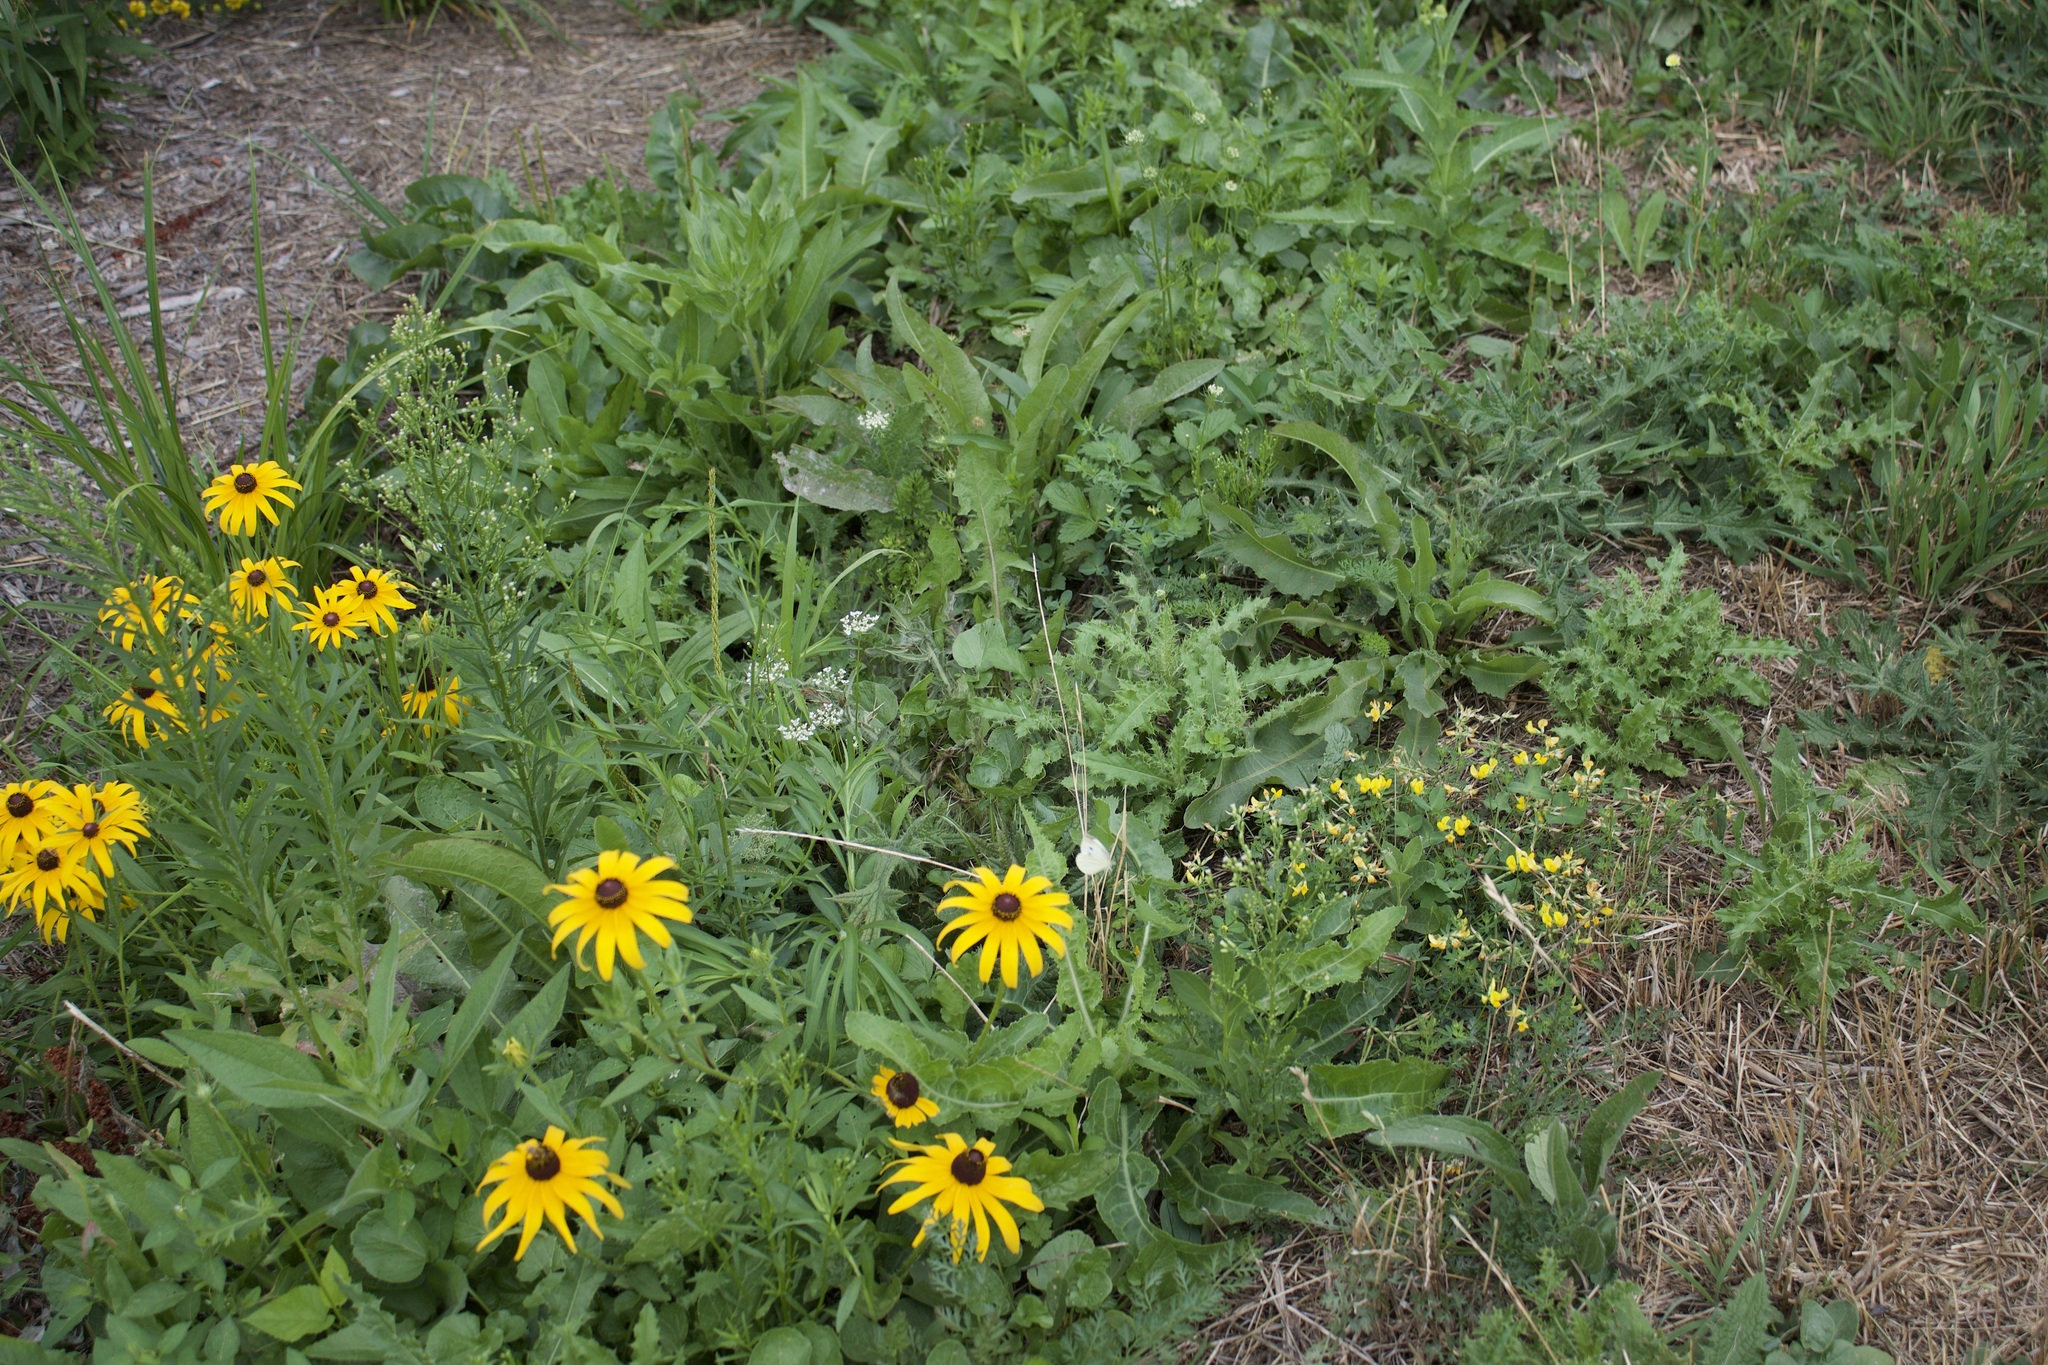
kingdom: Animalia
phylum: Arthropoda
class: Insecta
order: Lepidoptera
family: Pieridae
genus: Pieris
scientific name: Pieris rapae
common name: Small white
